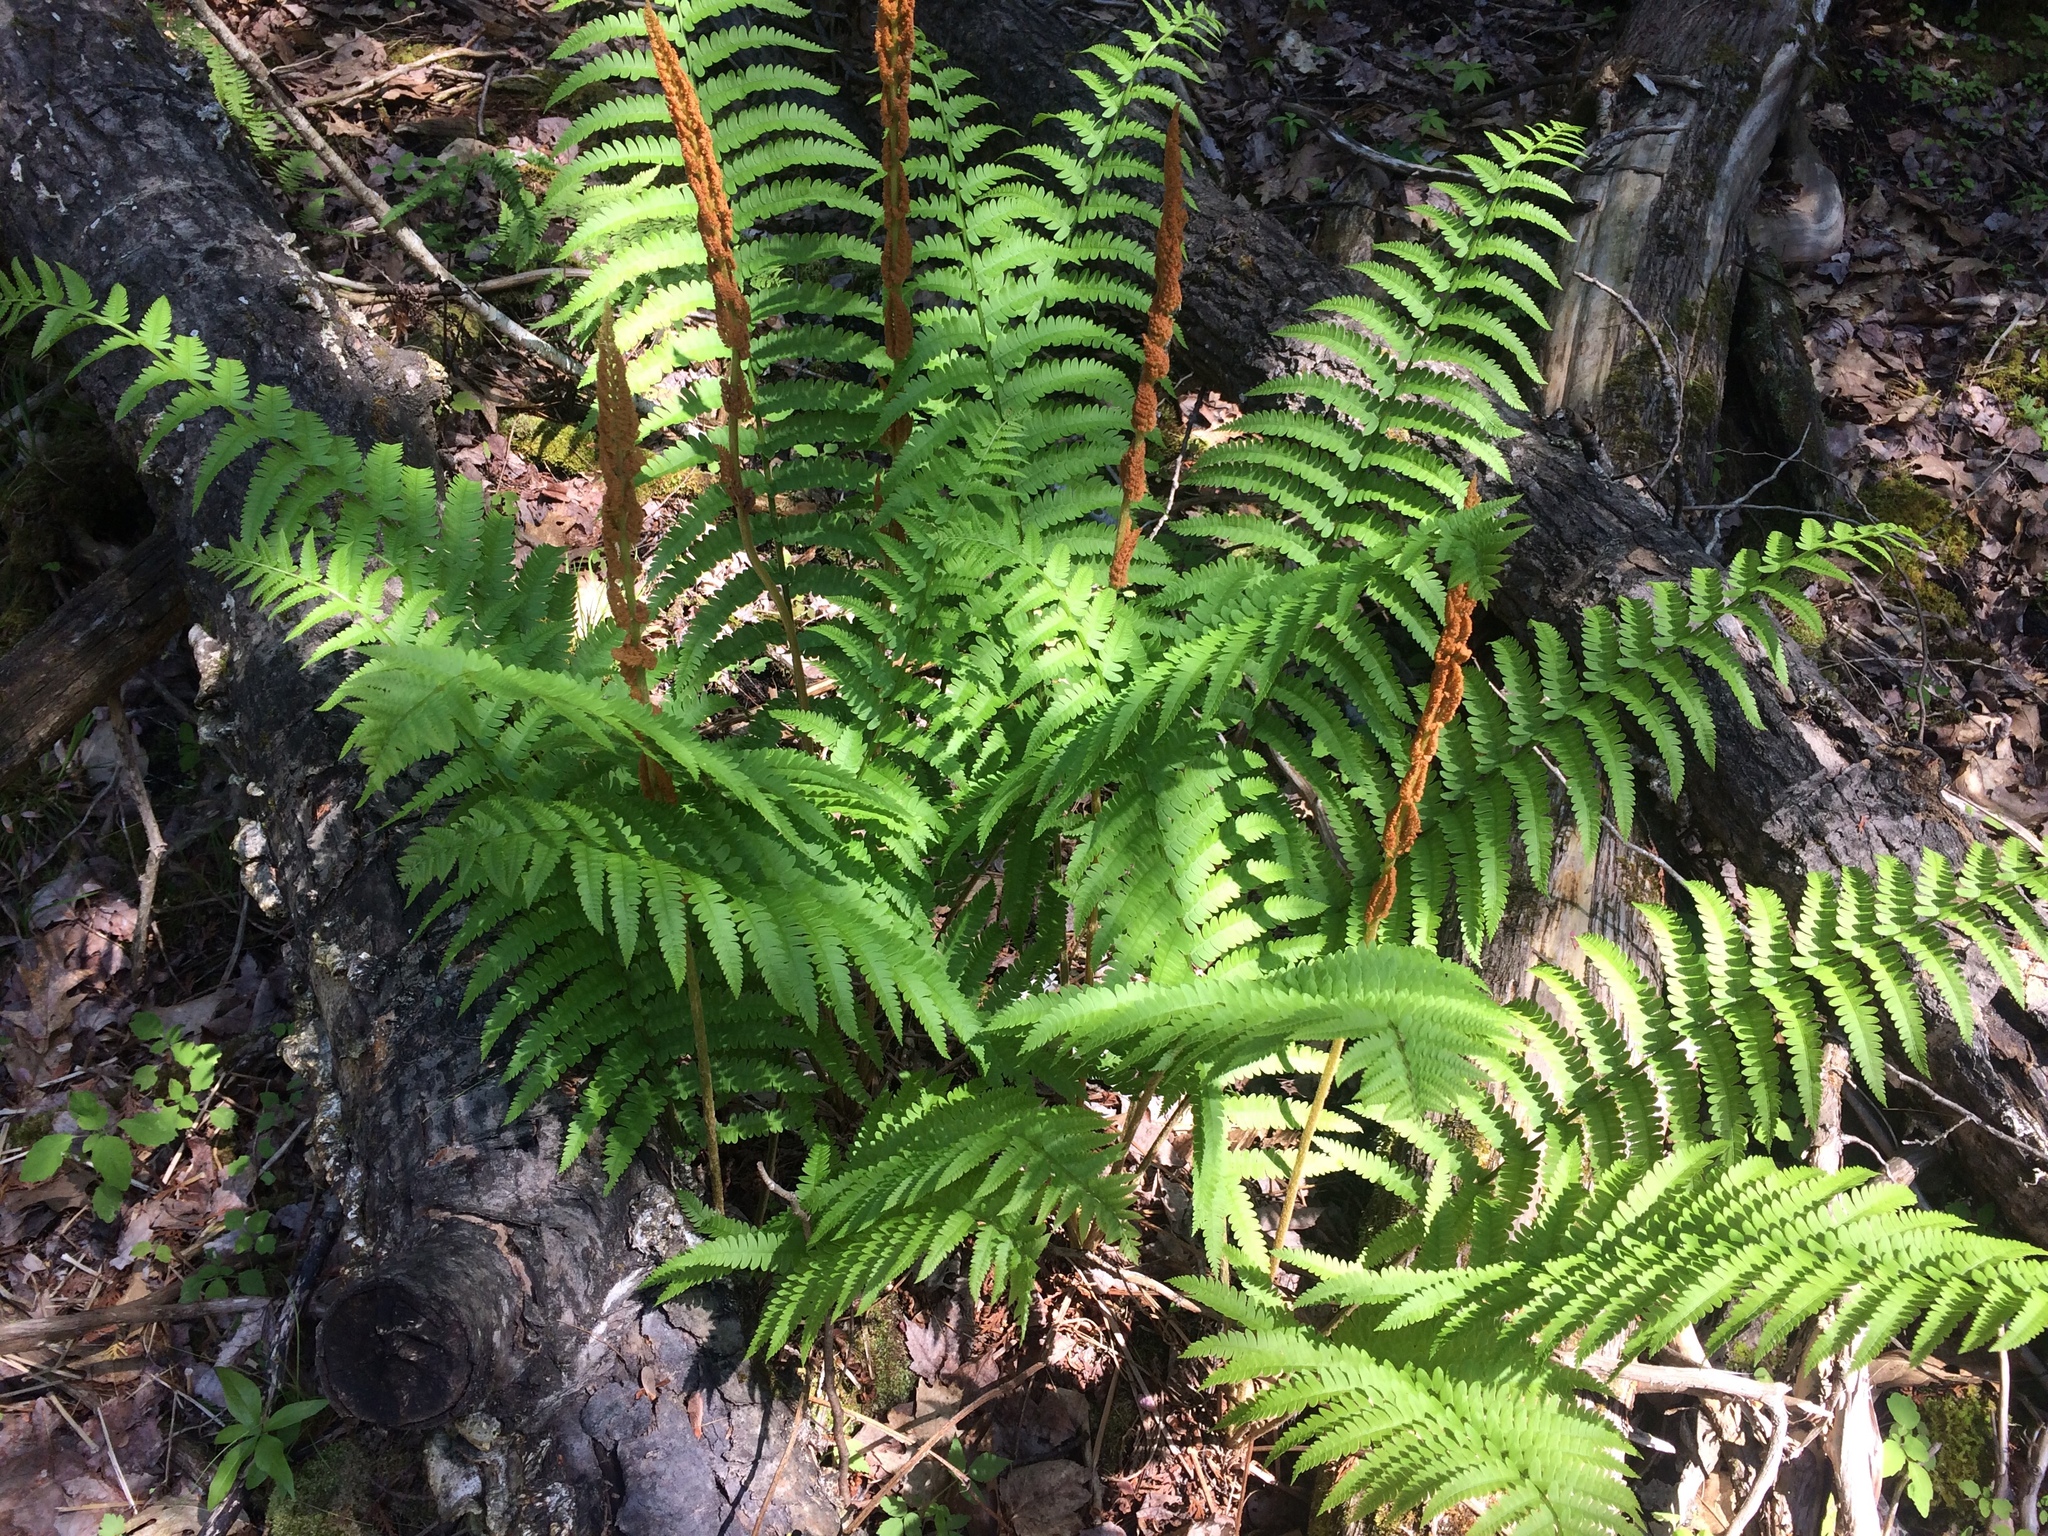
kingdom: Plantae
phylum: Tracheophyta
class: Polypodiopsida
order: Osmundales
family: Osmundaceae
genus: Osmundastrum
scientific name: Osmundastrum cinnamomeum
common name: Cinnamon fern
